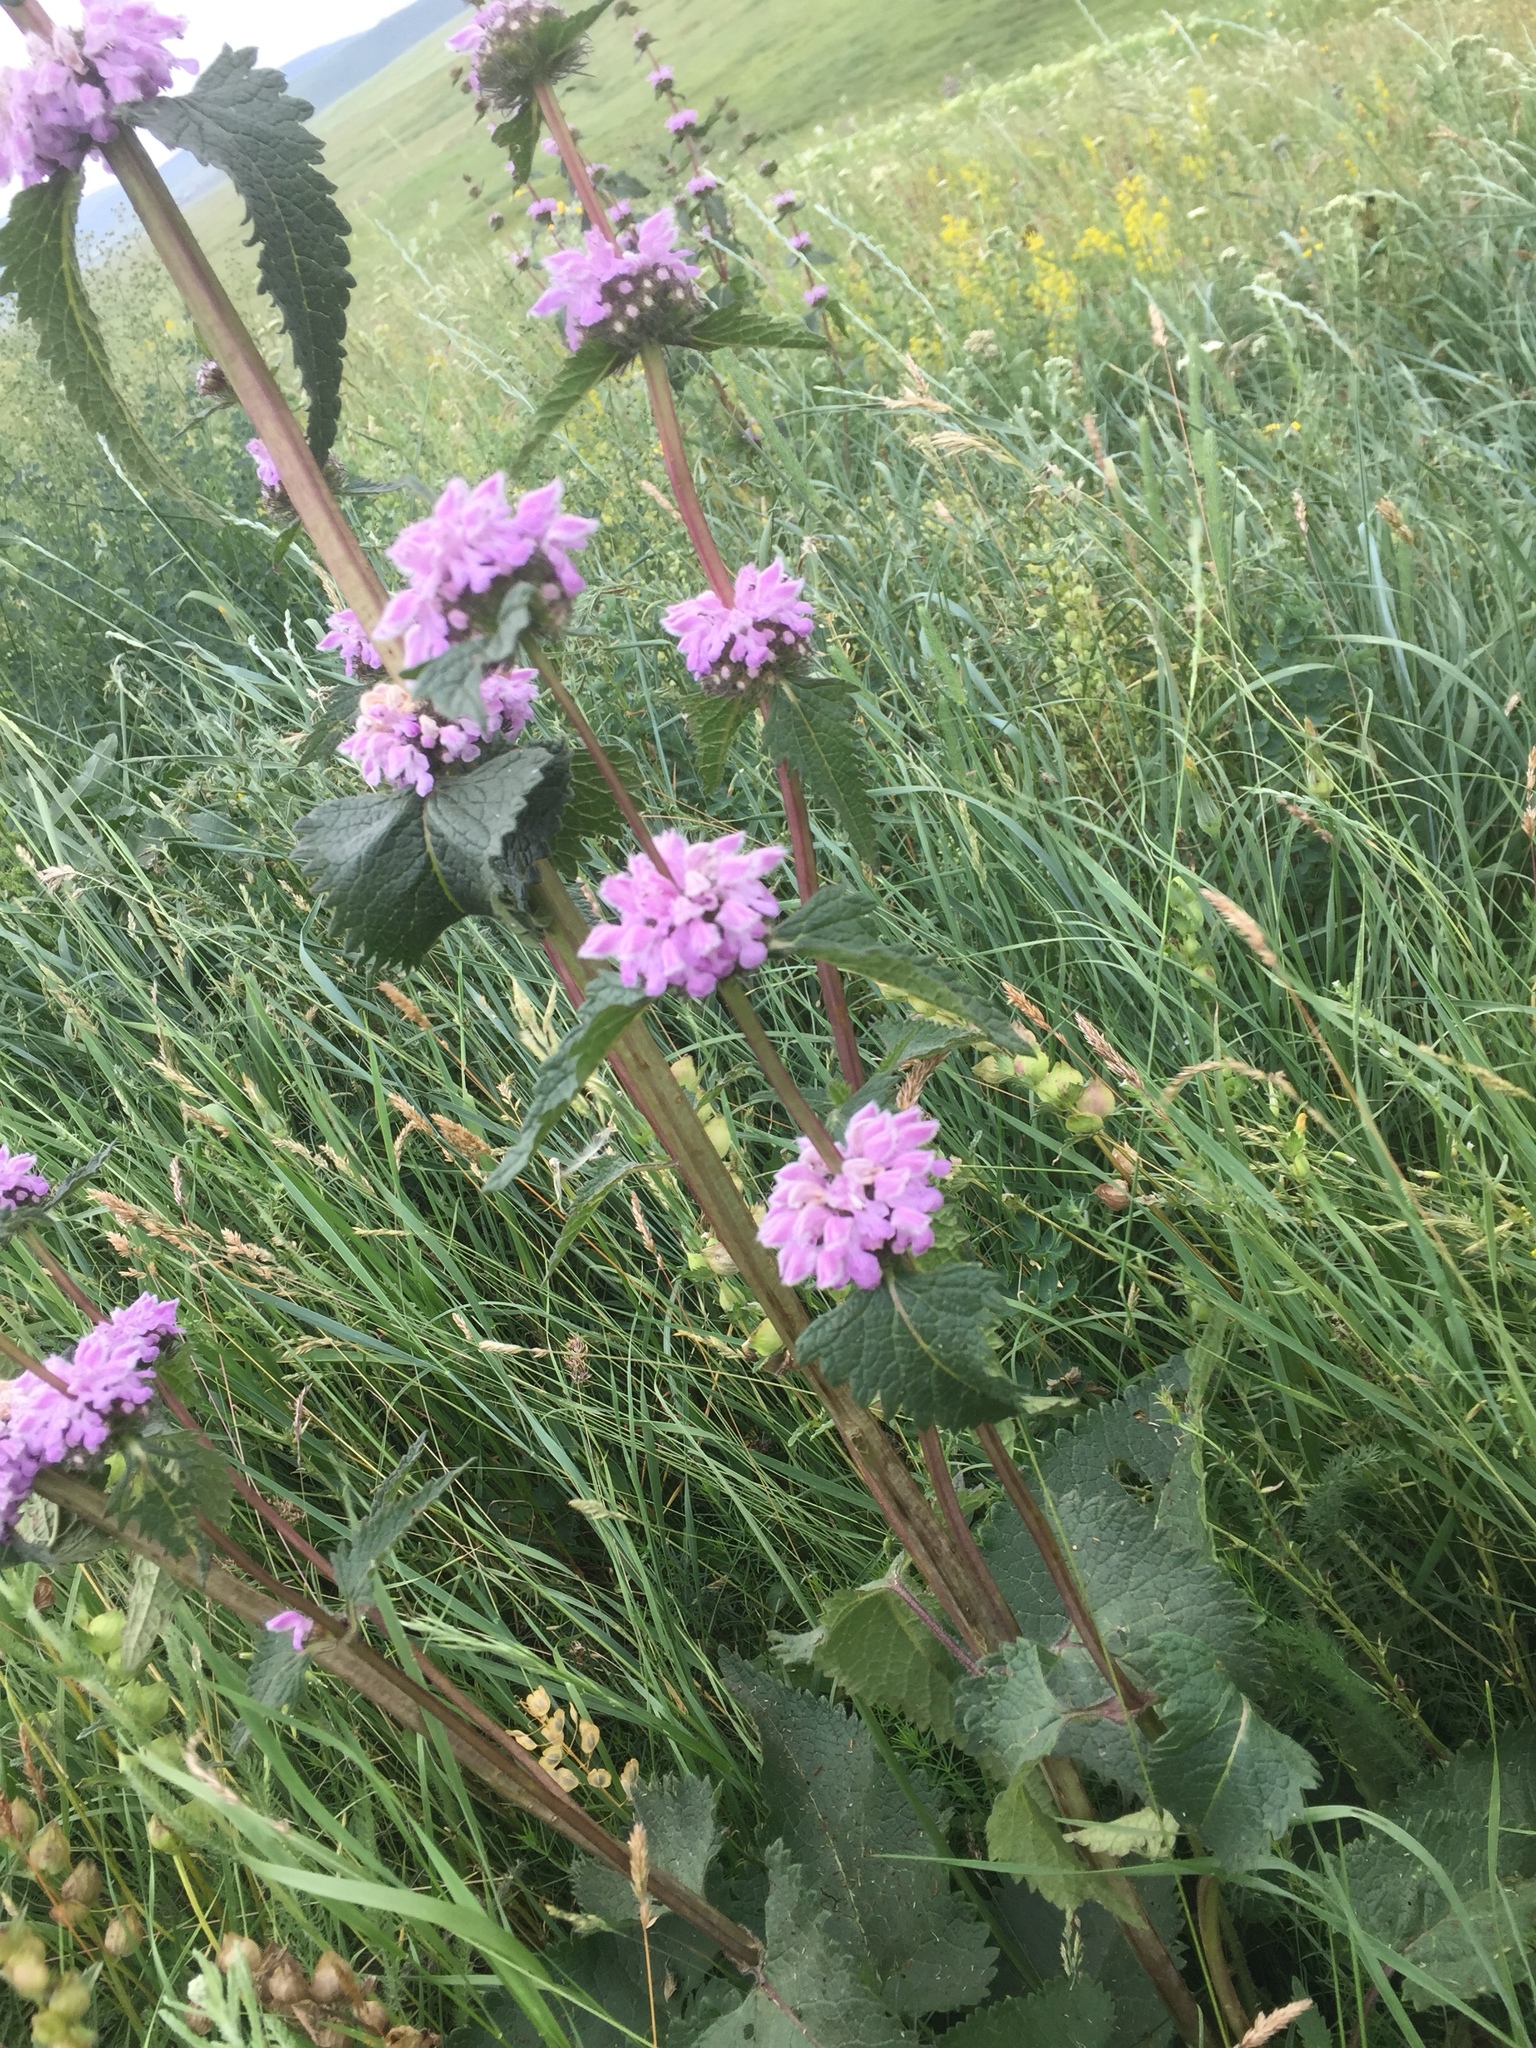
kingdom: Plantae
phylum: Tracheophyta
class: Magnoliopsida
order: Lamiales
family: Lamiaceae
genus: Phlomoides
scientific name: Phlomoides tuberosa
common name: Tuberous jerusalem sage
